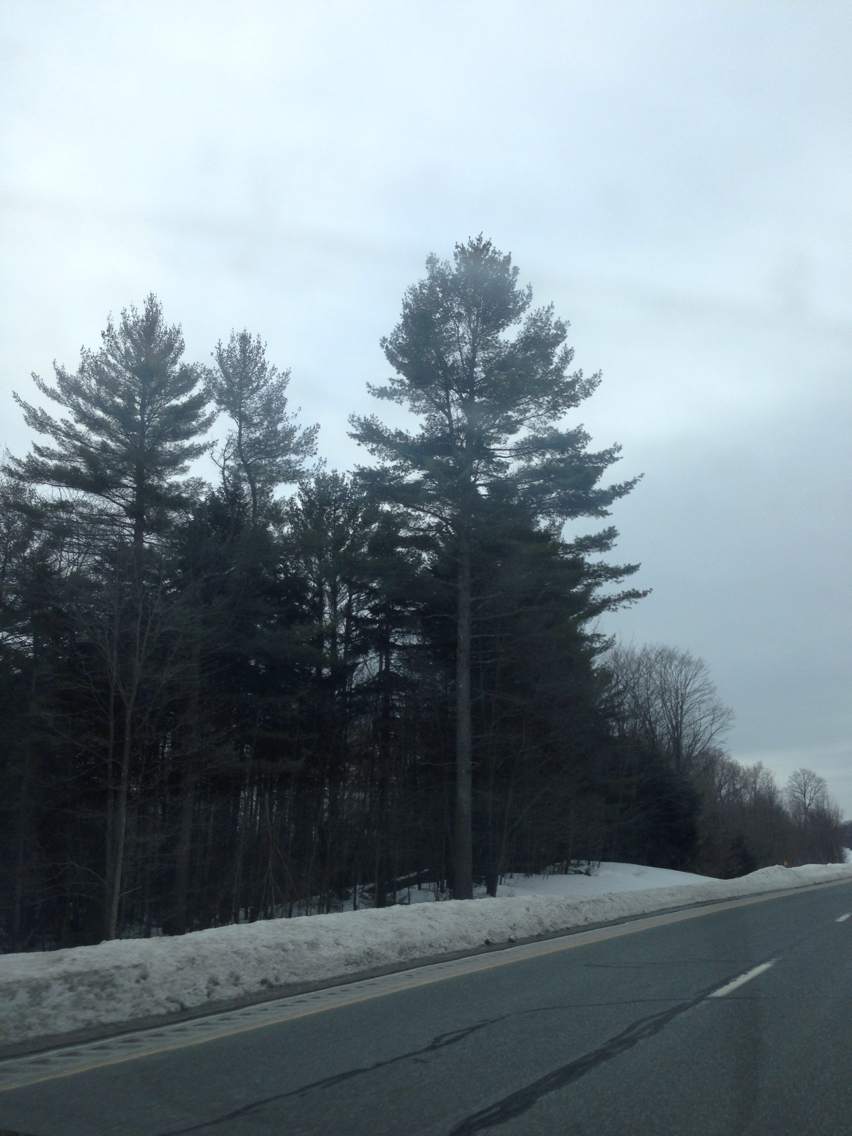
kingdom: Plantae
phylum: Tracheophyta
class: Pinopsida
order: Pinales
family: Pinaceae
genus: Pinus
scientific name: Pinus strobus
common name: Weymouth pine
